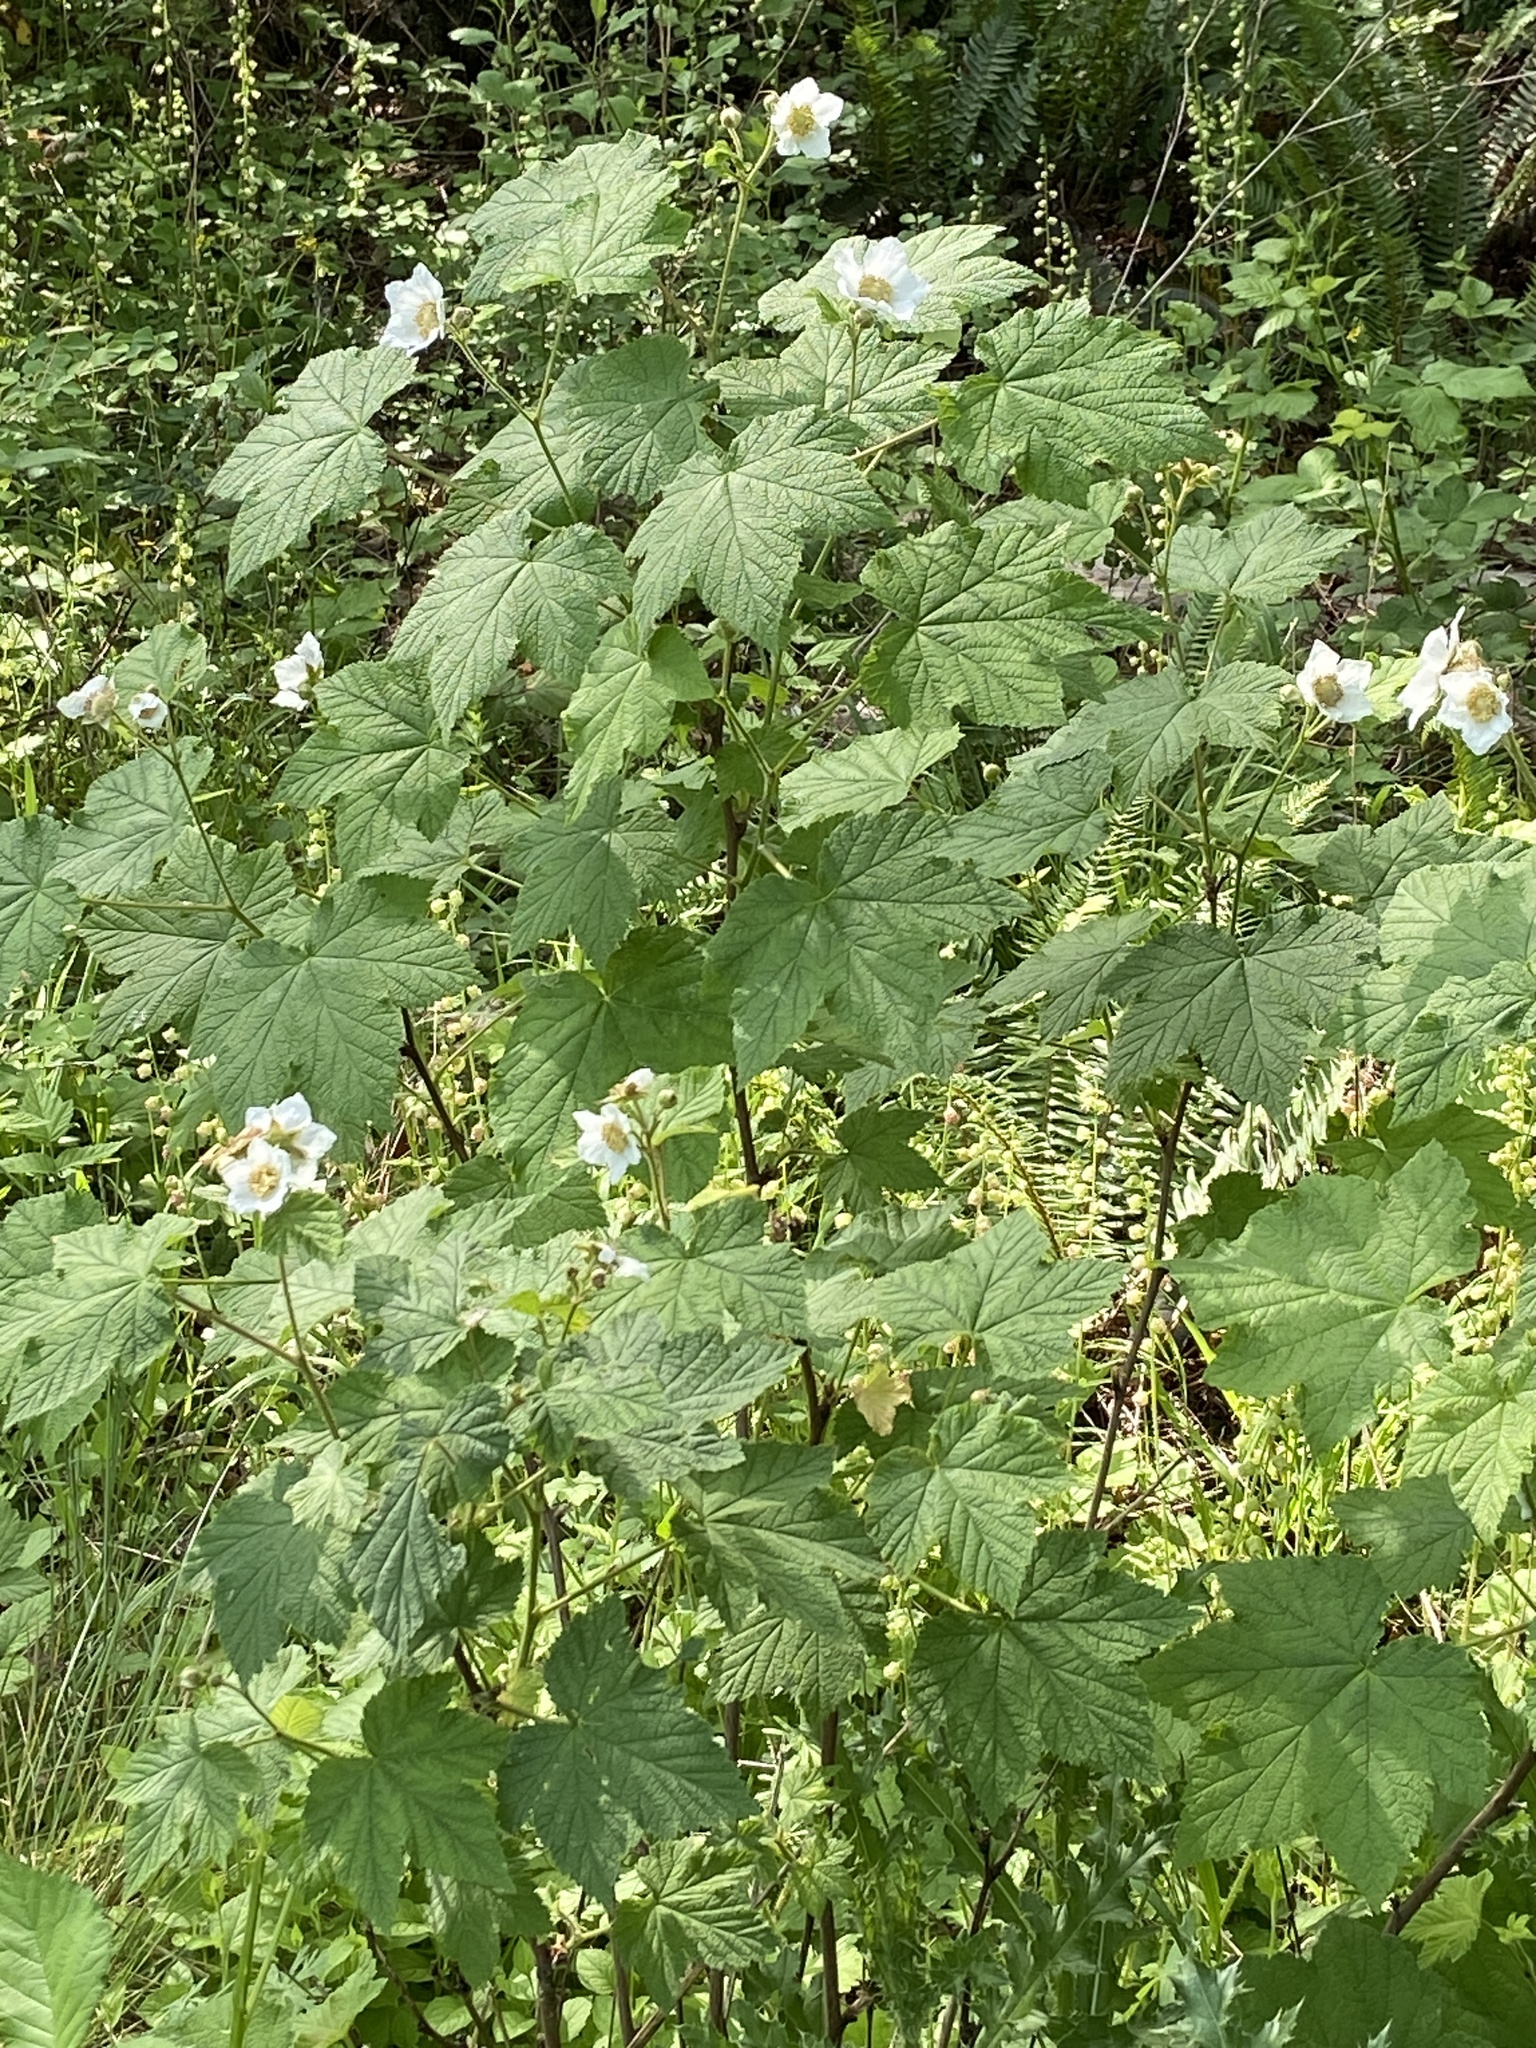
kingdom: Plantae
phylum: Tracheophyta
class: Magnoliopsida
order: Rosales
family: Rosaceae
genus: Rubus
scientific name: Rubus parviflorus
